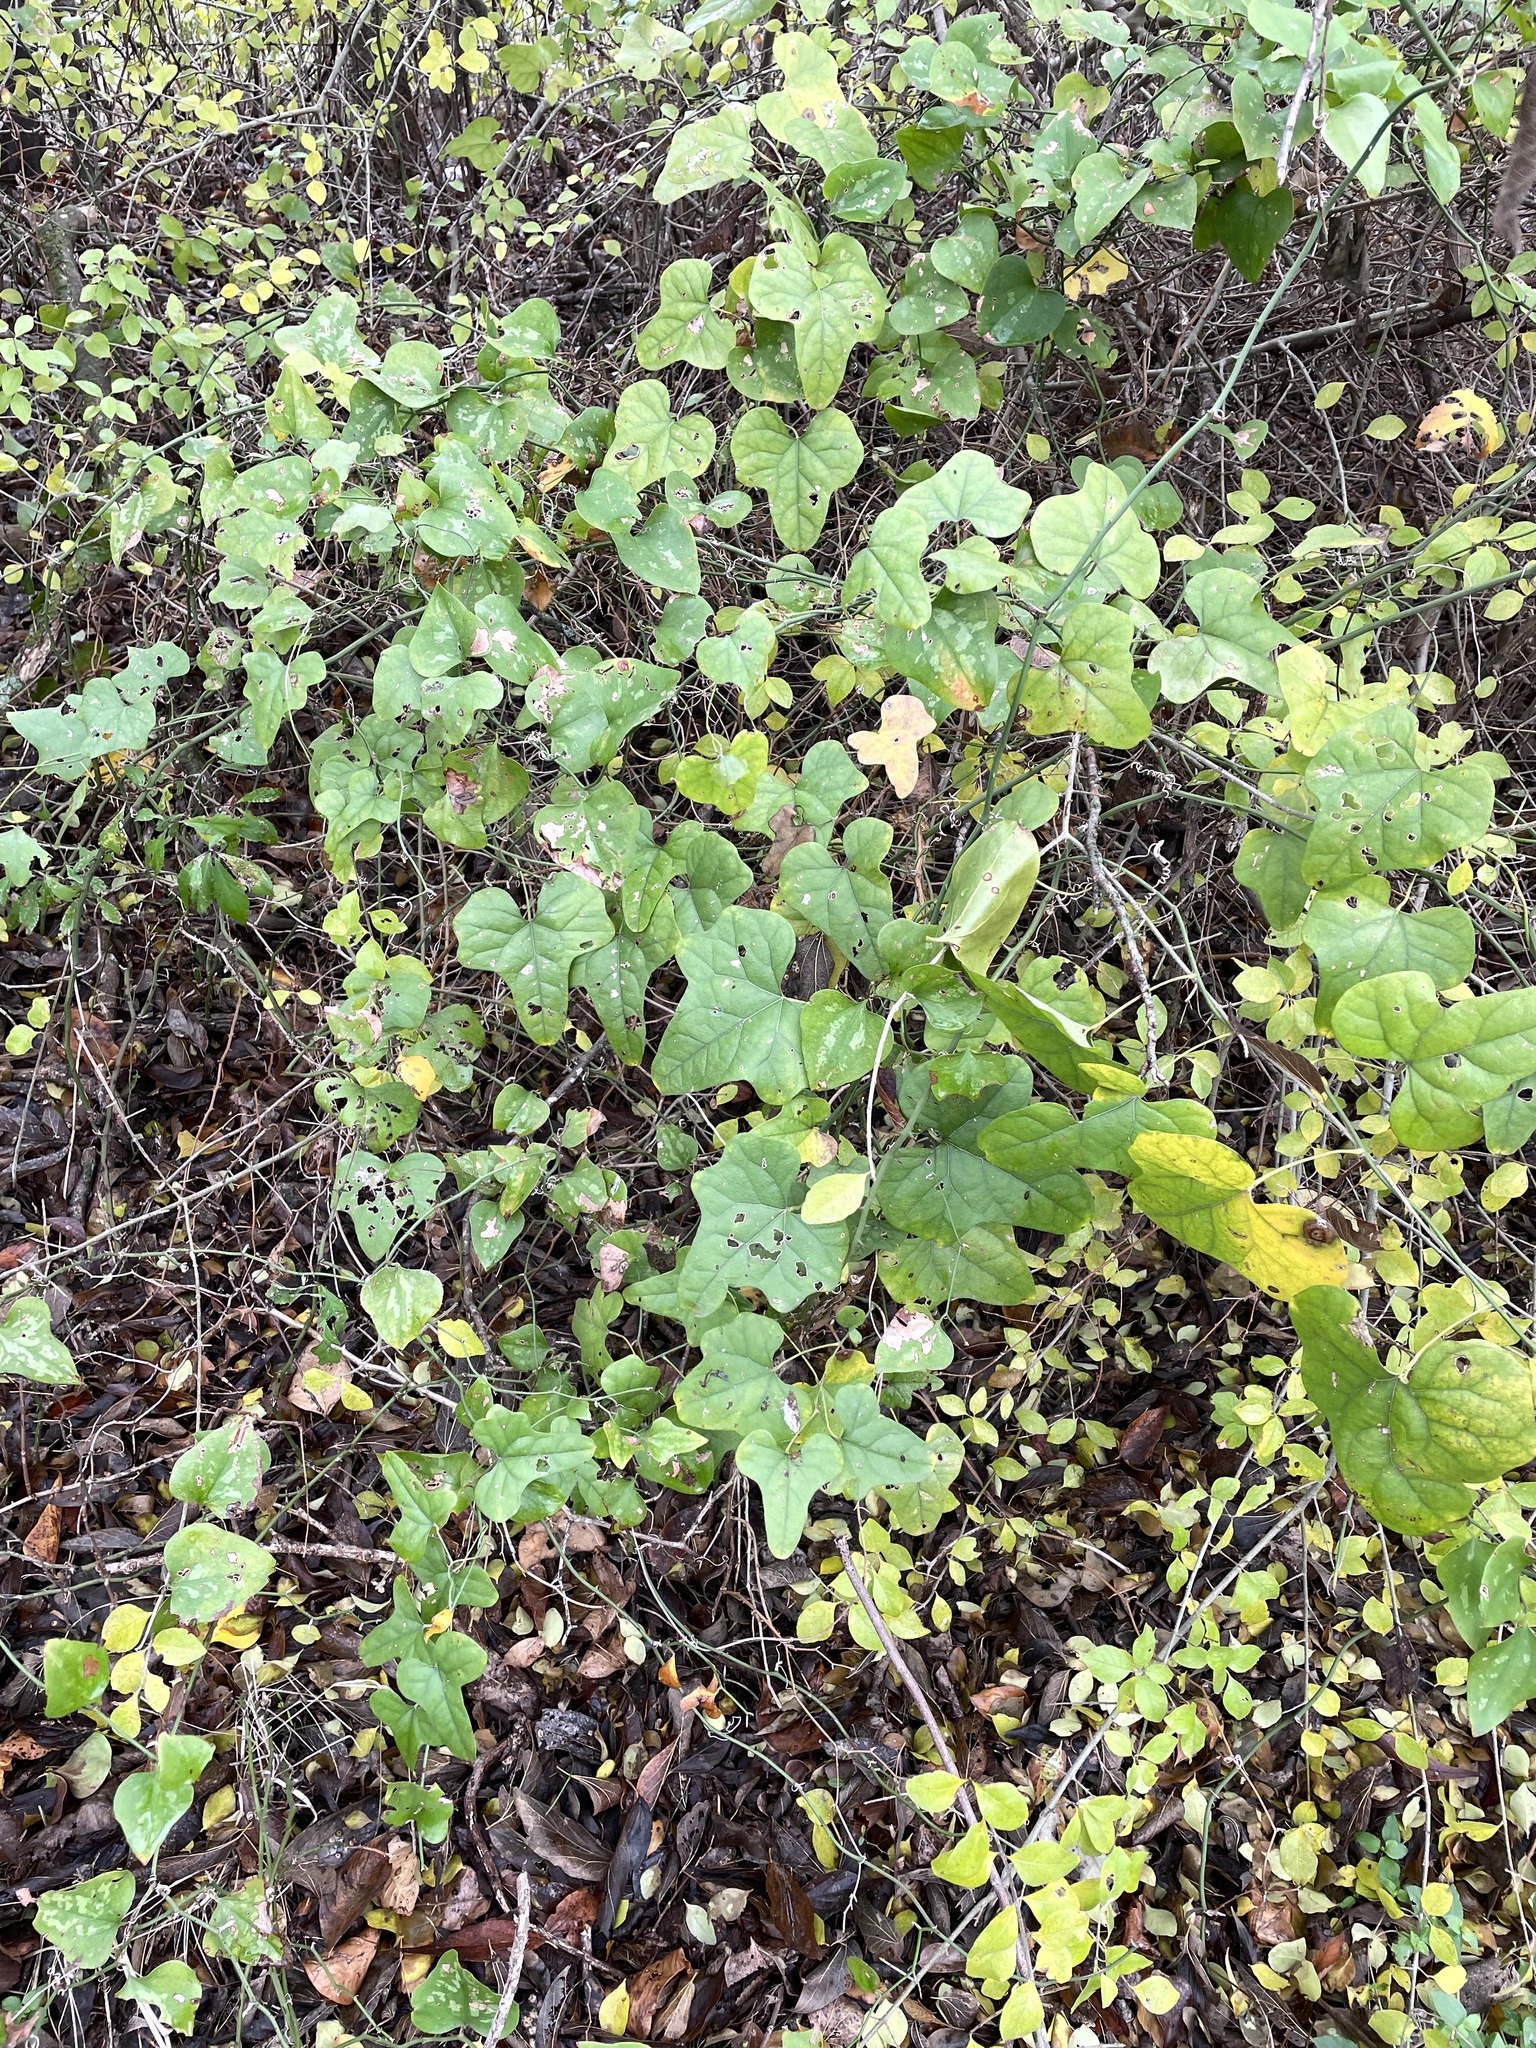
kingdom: Plantae
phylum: Tracheophyta
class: Magnoliopsida
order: Ranunculales
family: Menispermaceae
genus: Cocculus
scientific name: Cocculus carolinus
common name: Carolina moonseed
